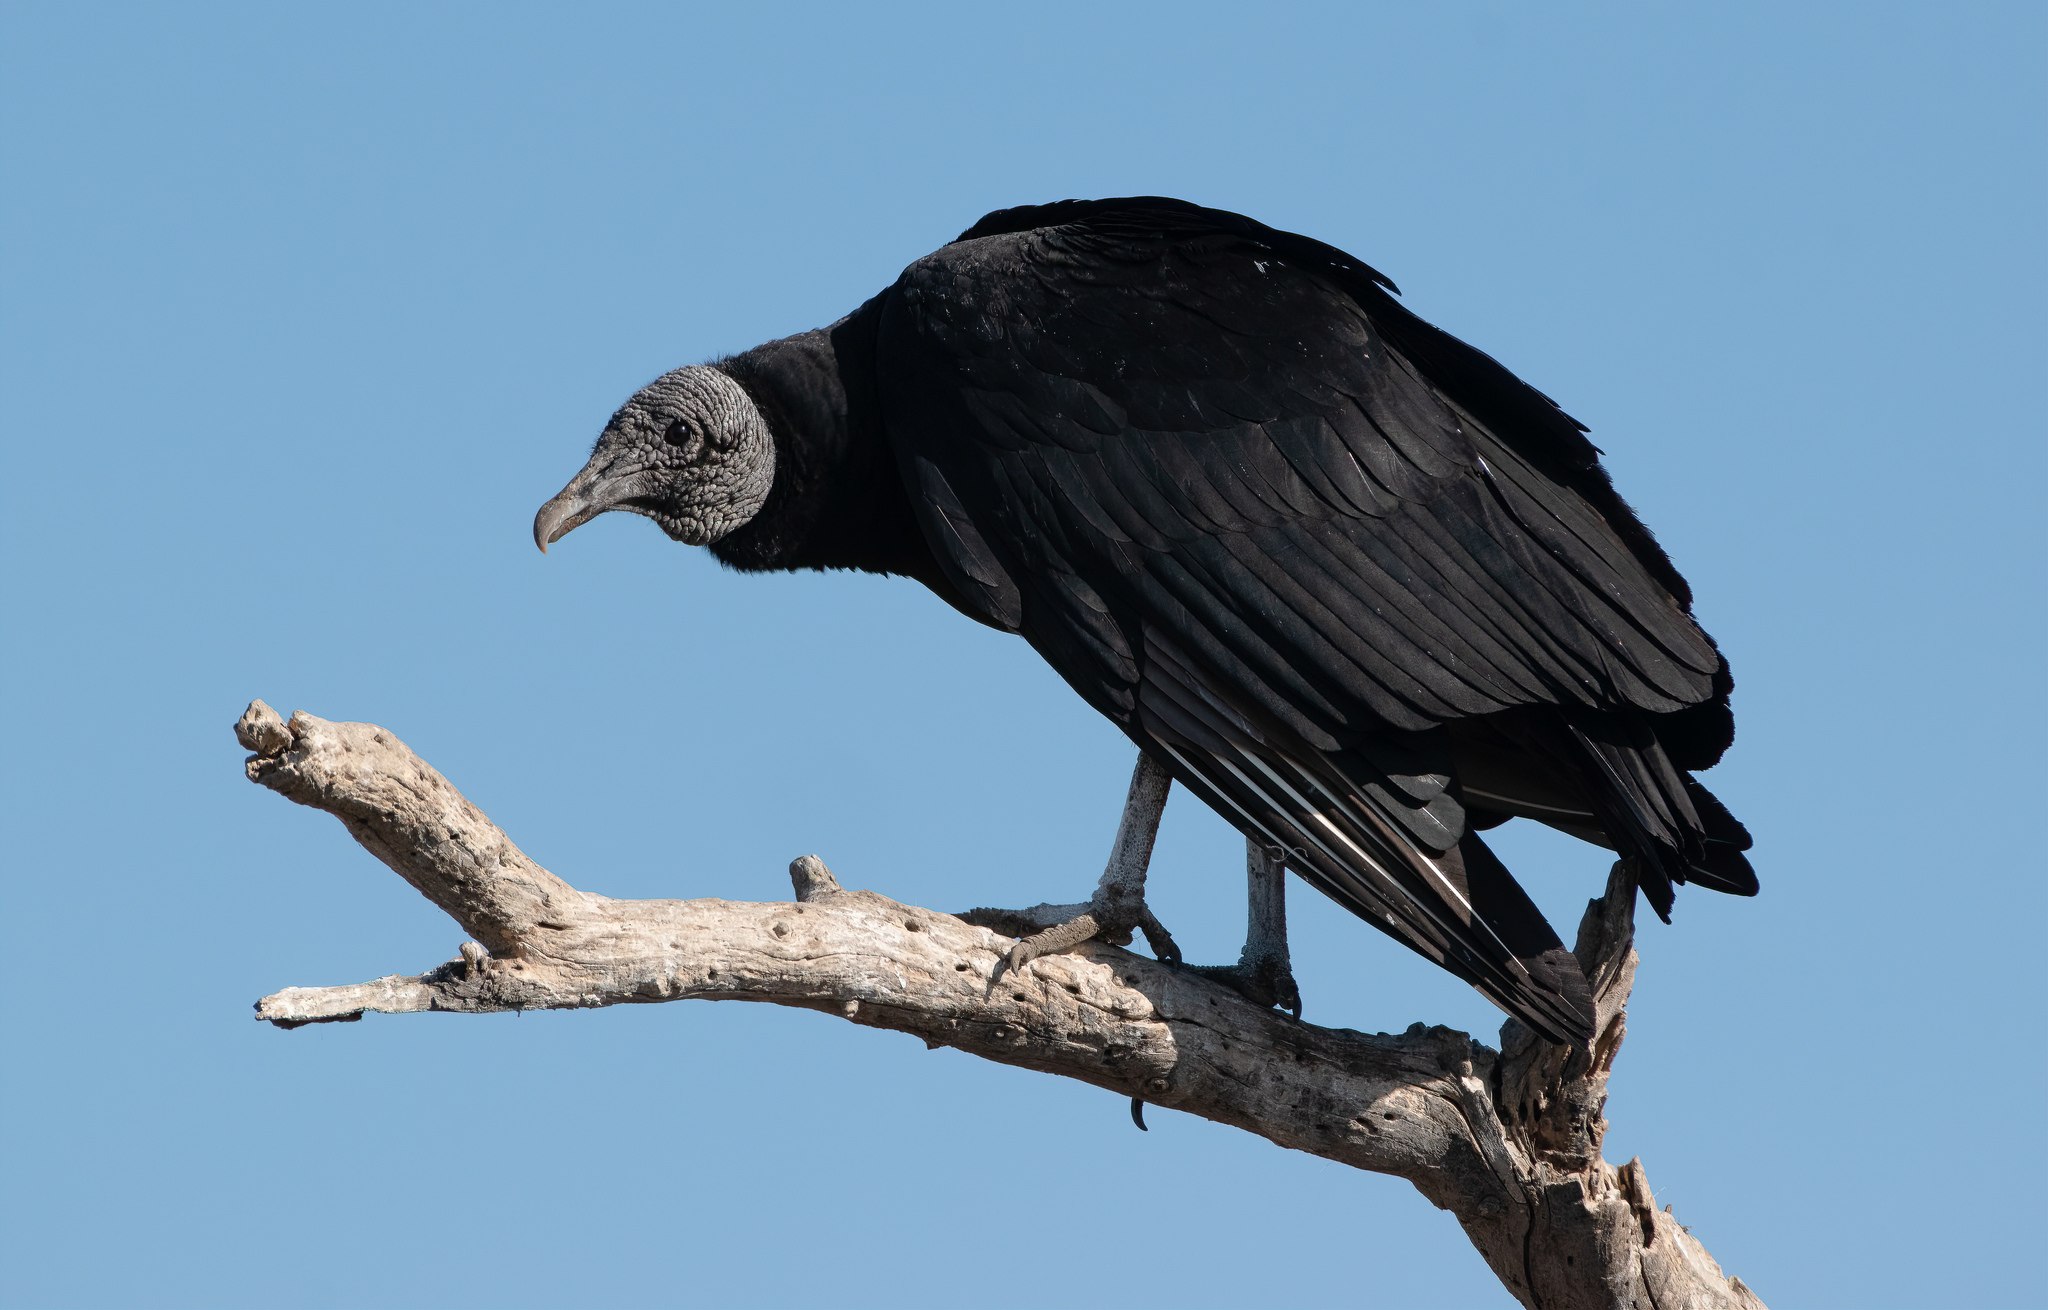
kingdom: Animalia
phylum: Chordata
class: Aves
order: Accipitriformes
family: Cathartidae
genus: Coragyps
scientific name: Coragyps atratus
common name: Black vulture
